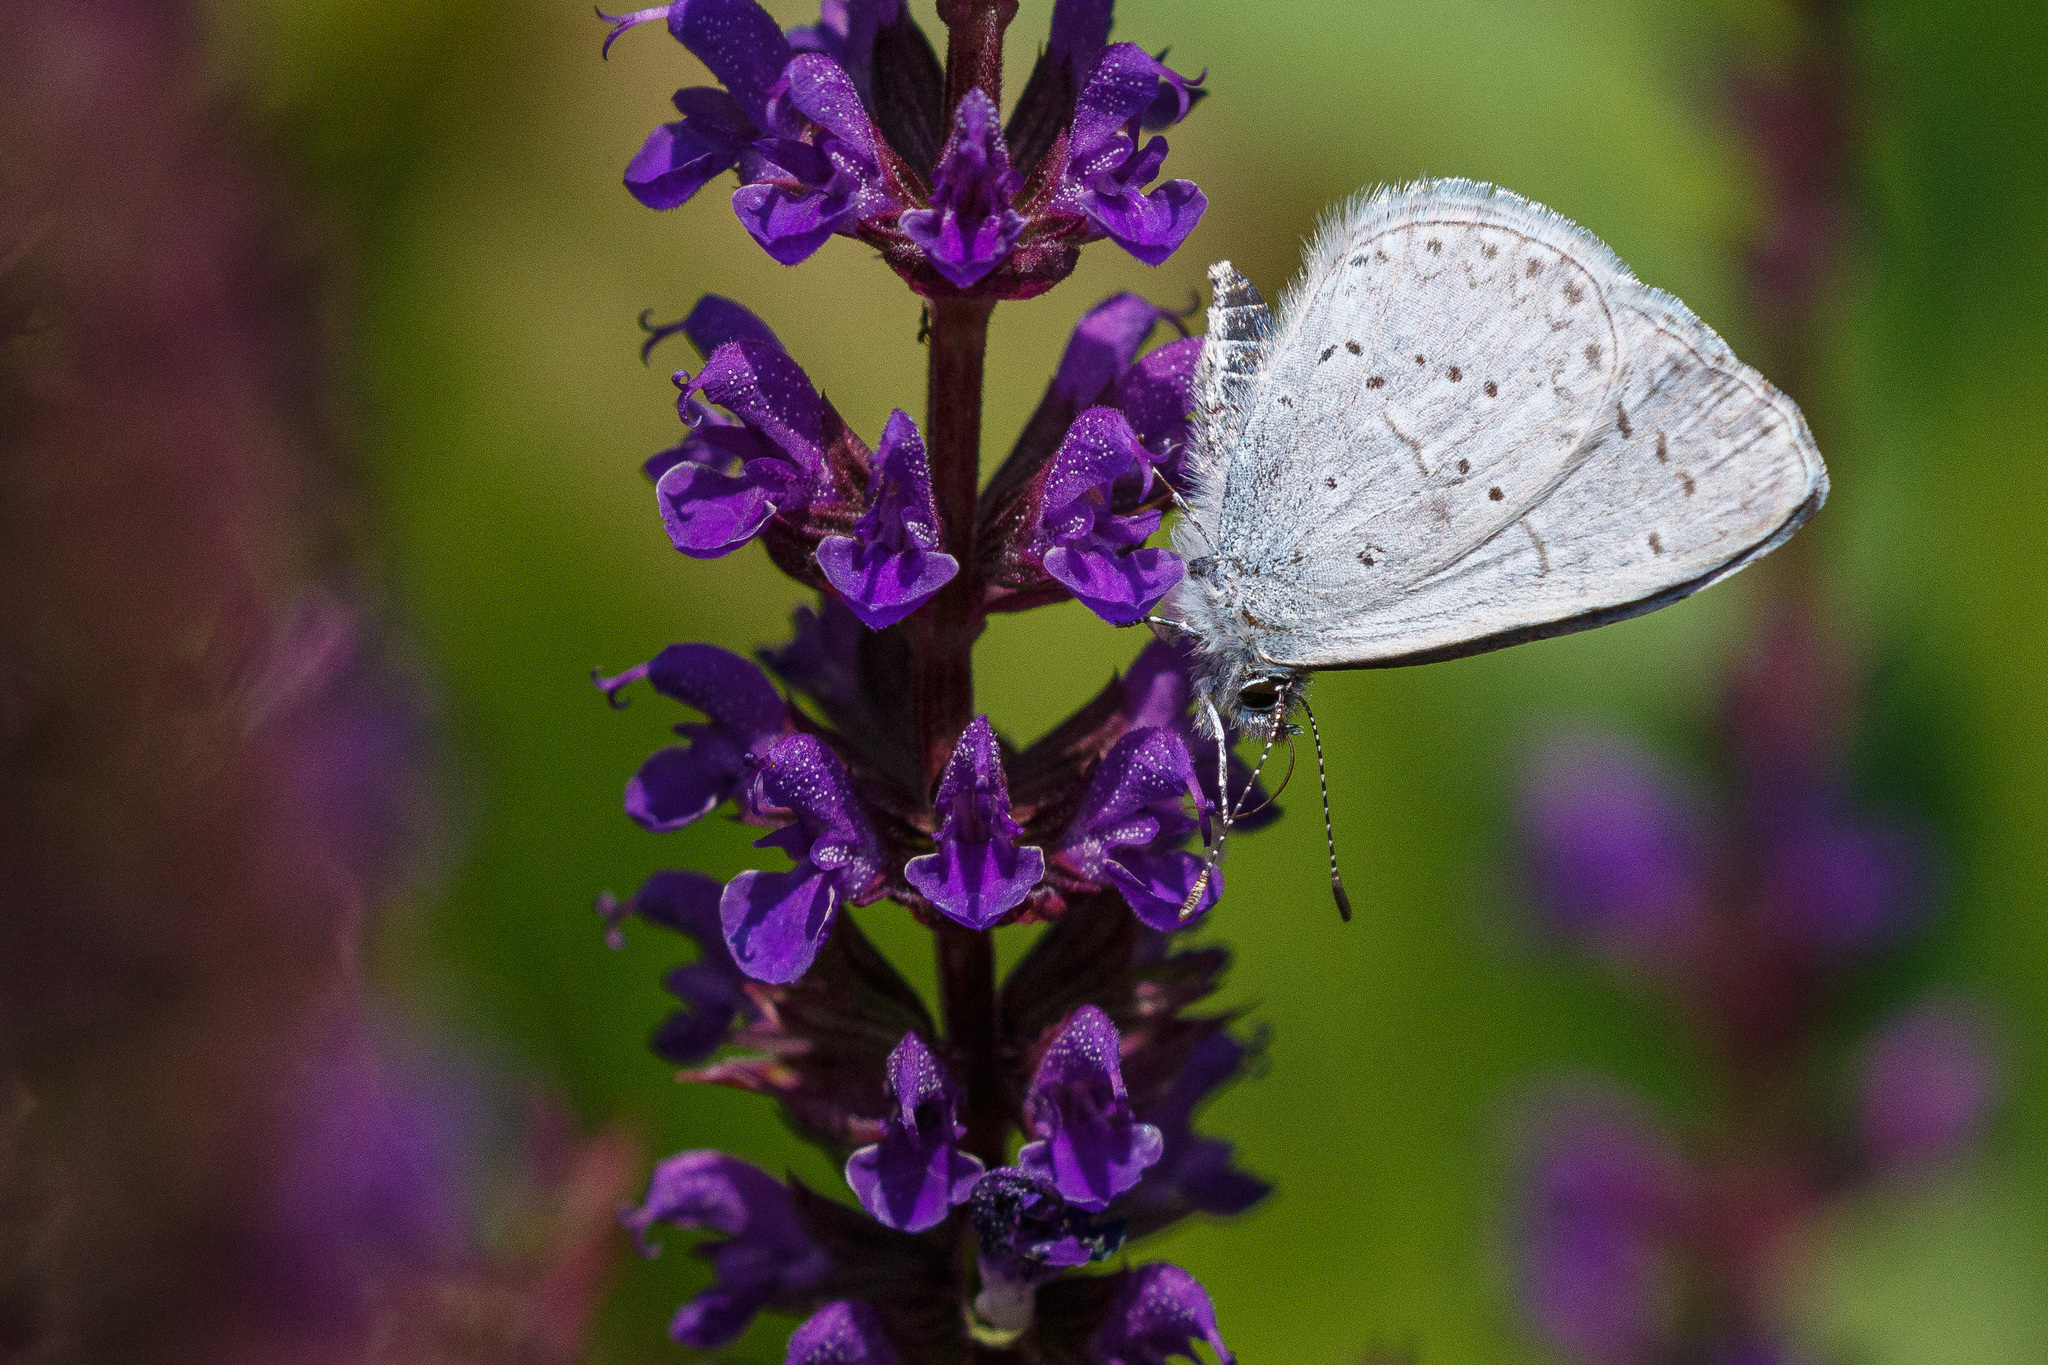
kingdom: Animalia
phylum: Arthropoda
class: Insecta
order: Lepidoptera
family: Lycaenidae
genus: Celastrina
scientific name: Celastrina ladon
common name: Spring azure
